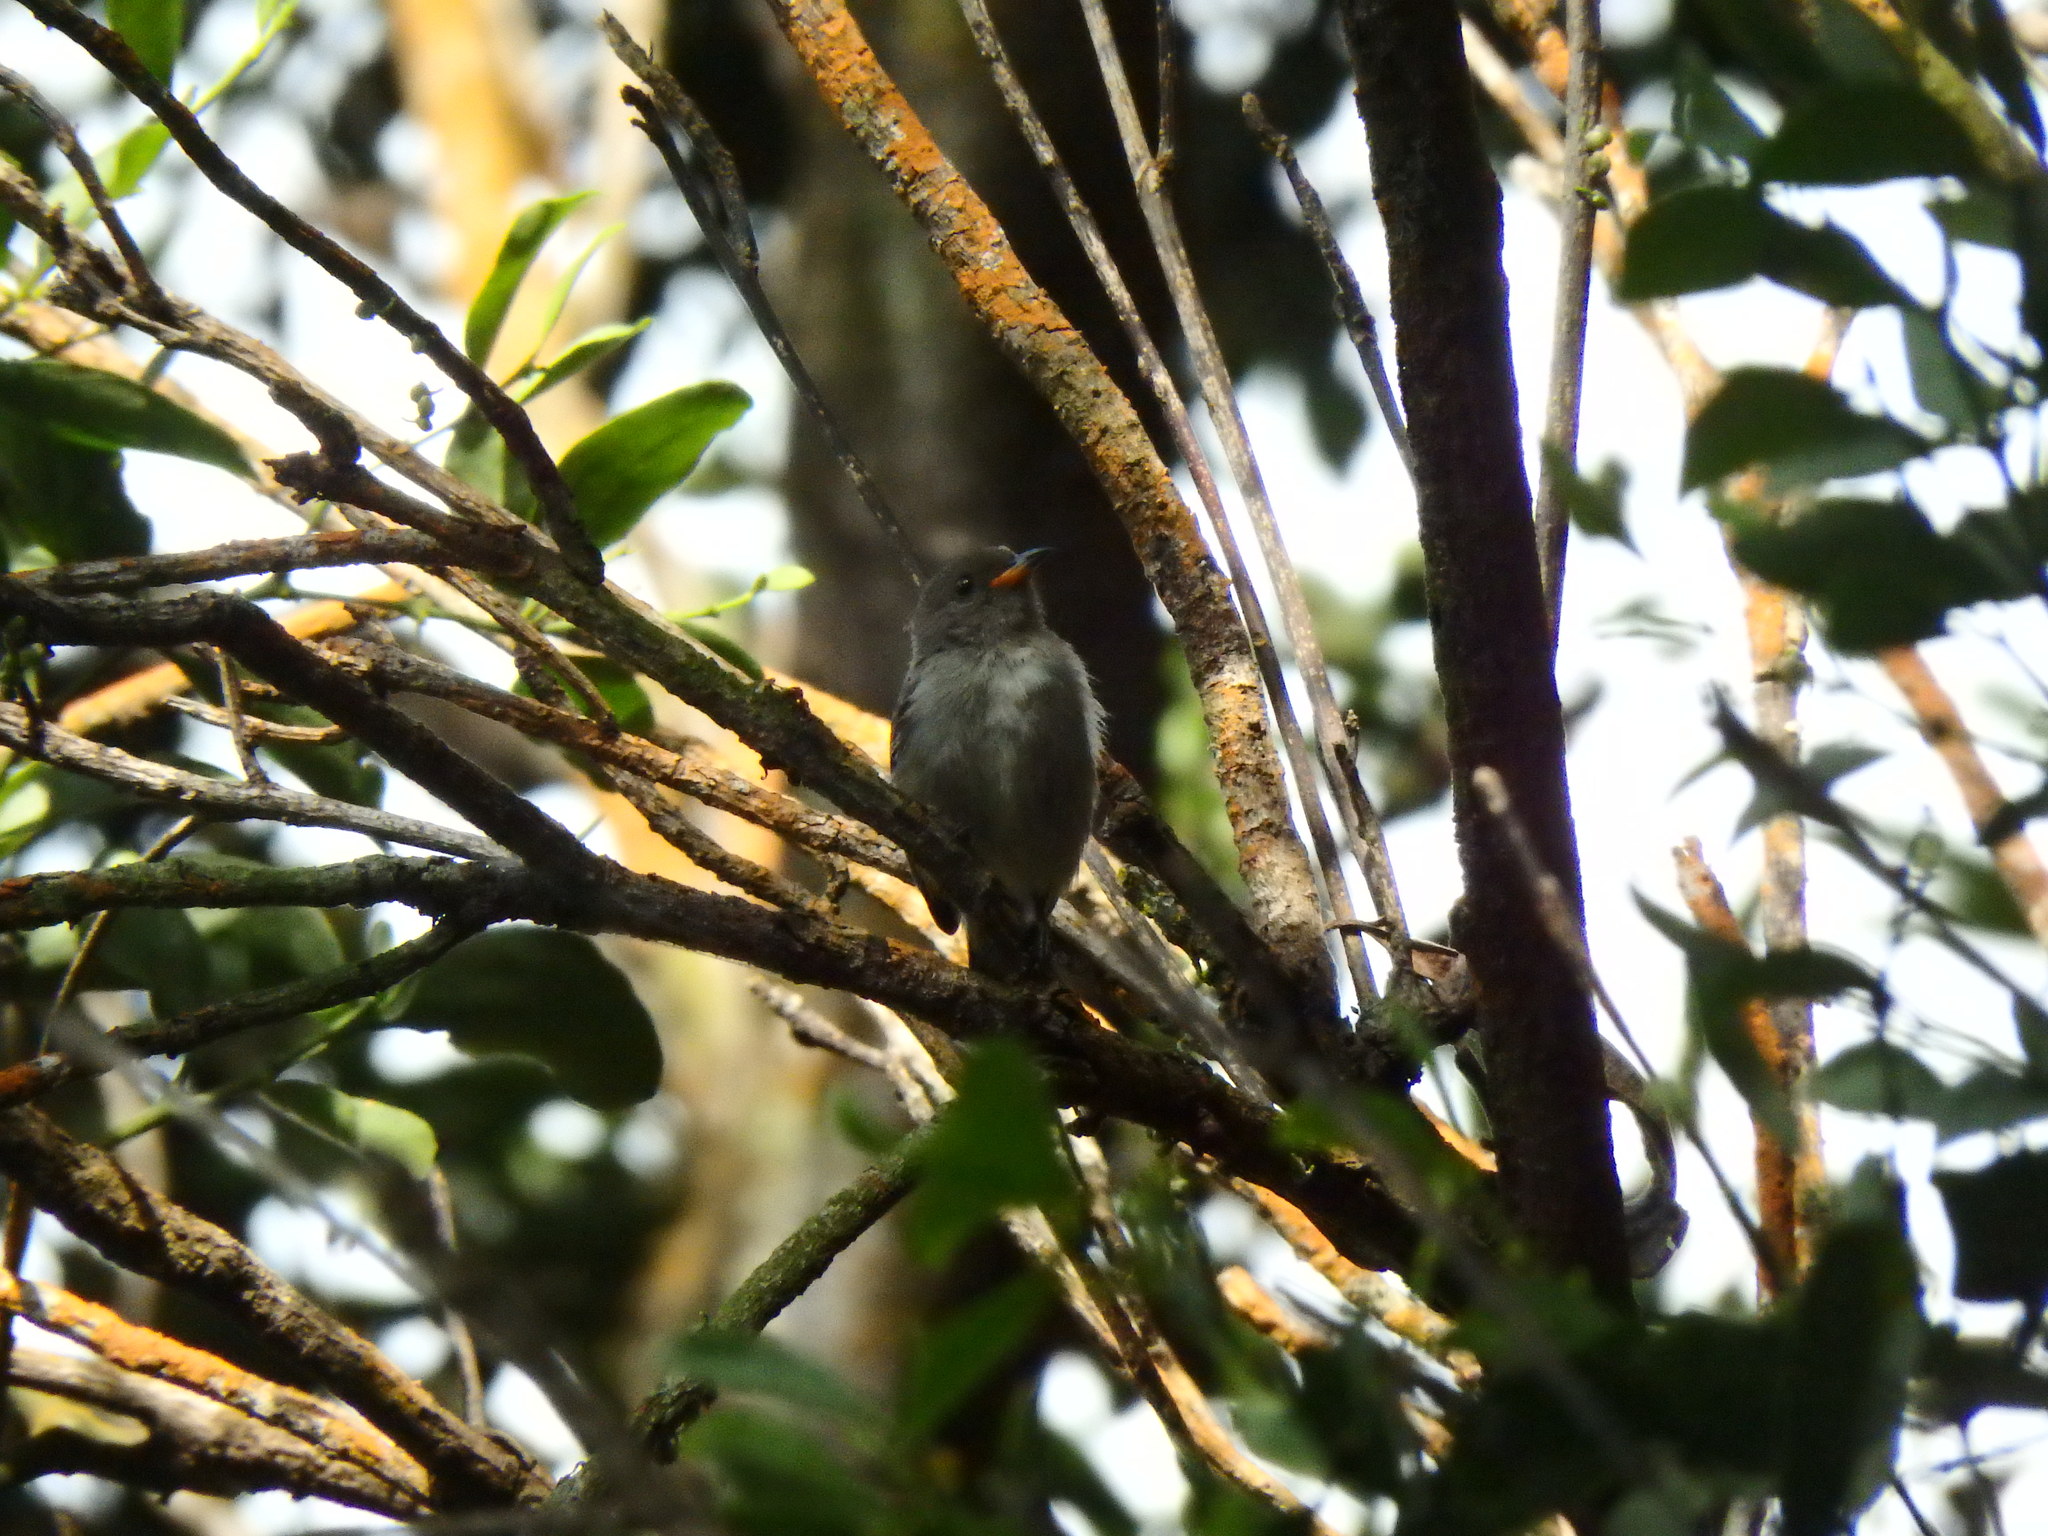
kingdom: Animalia
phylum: Chordata
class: Aves
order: Passeriformes
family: Dicaeidae
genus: Dicaeum
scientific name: Dicaeum cruentatum
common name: Scarlet-backed flowerpecker
